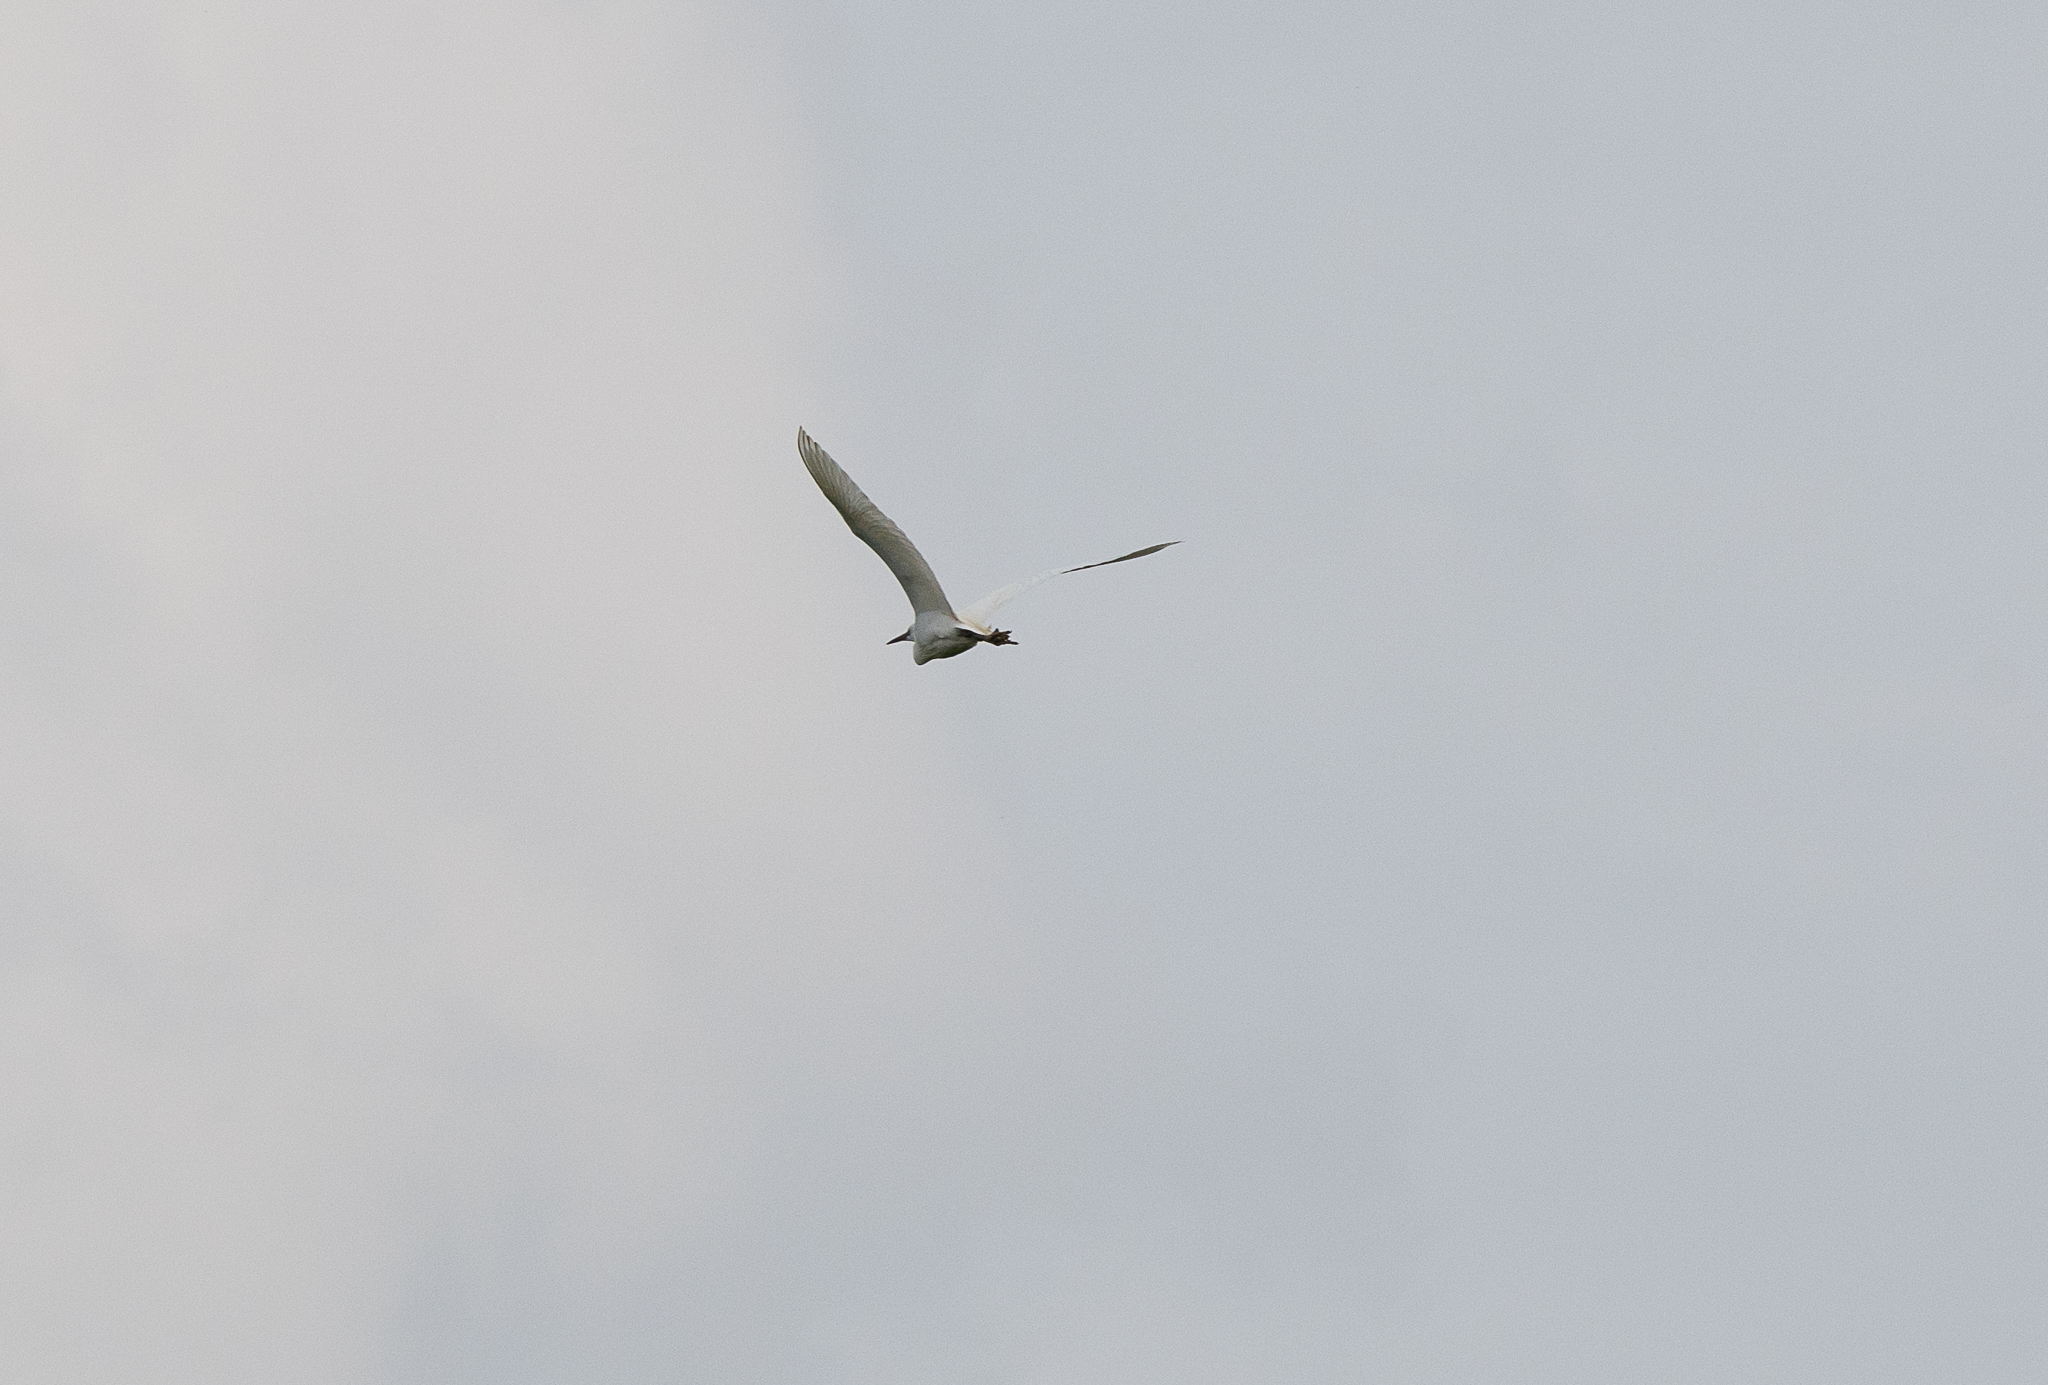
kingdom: Animalia
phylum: Chordata
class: Aves
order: Pelecaniformes
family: Ardeidae
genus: Egretta
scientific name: Egretta garzetta
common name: Little egret
